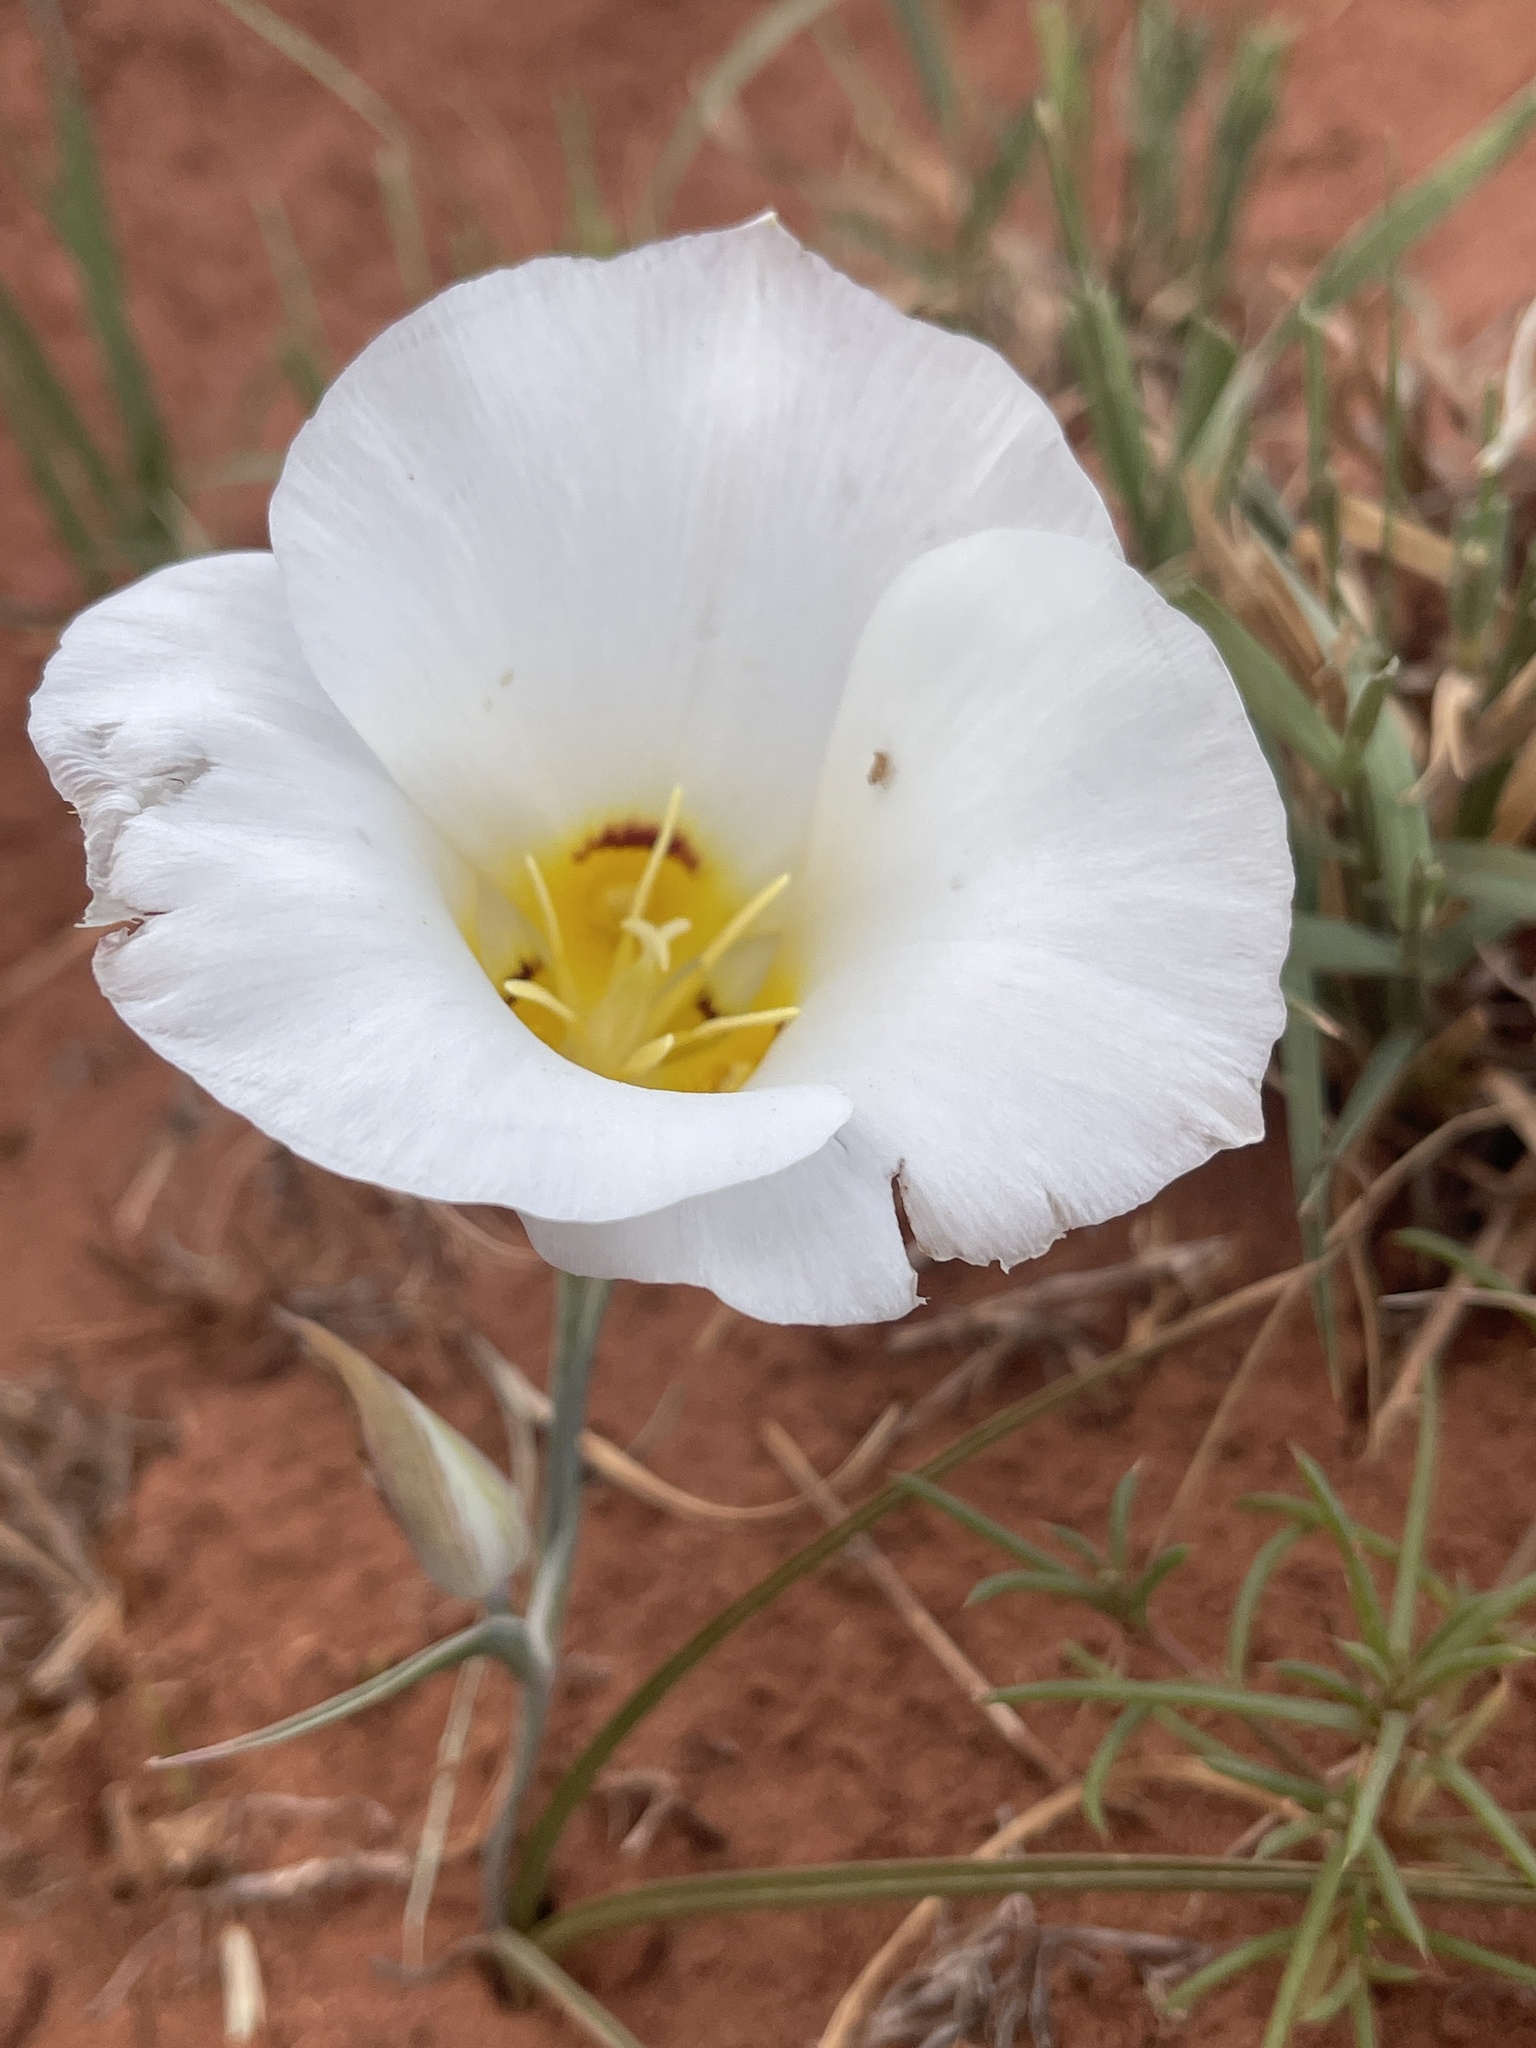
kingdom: Plantae
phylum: Tracheophyta
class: Liliopsida
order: Liliales
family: Liliaceae
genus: Calochortus
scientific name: Calochortus nuttallii
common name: Sego-lily
